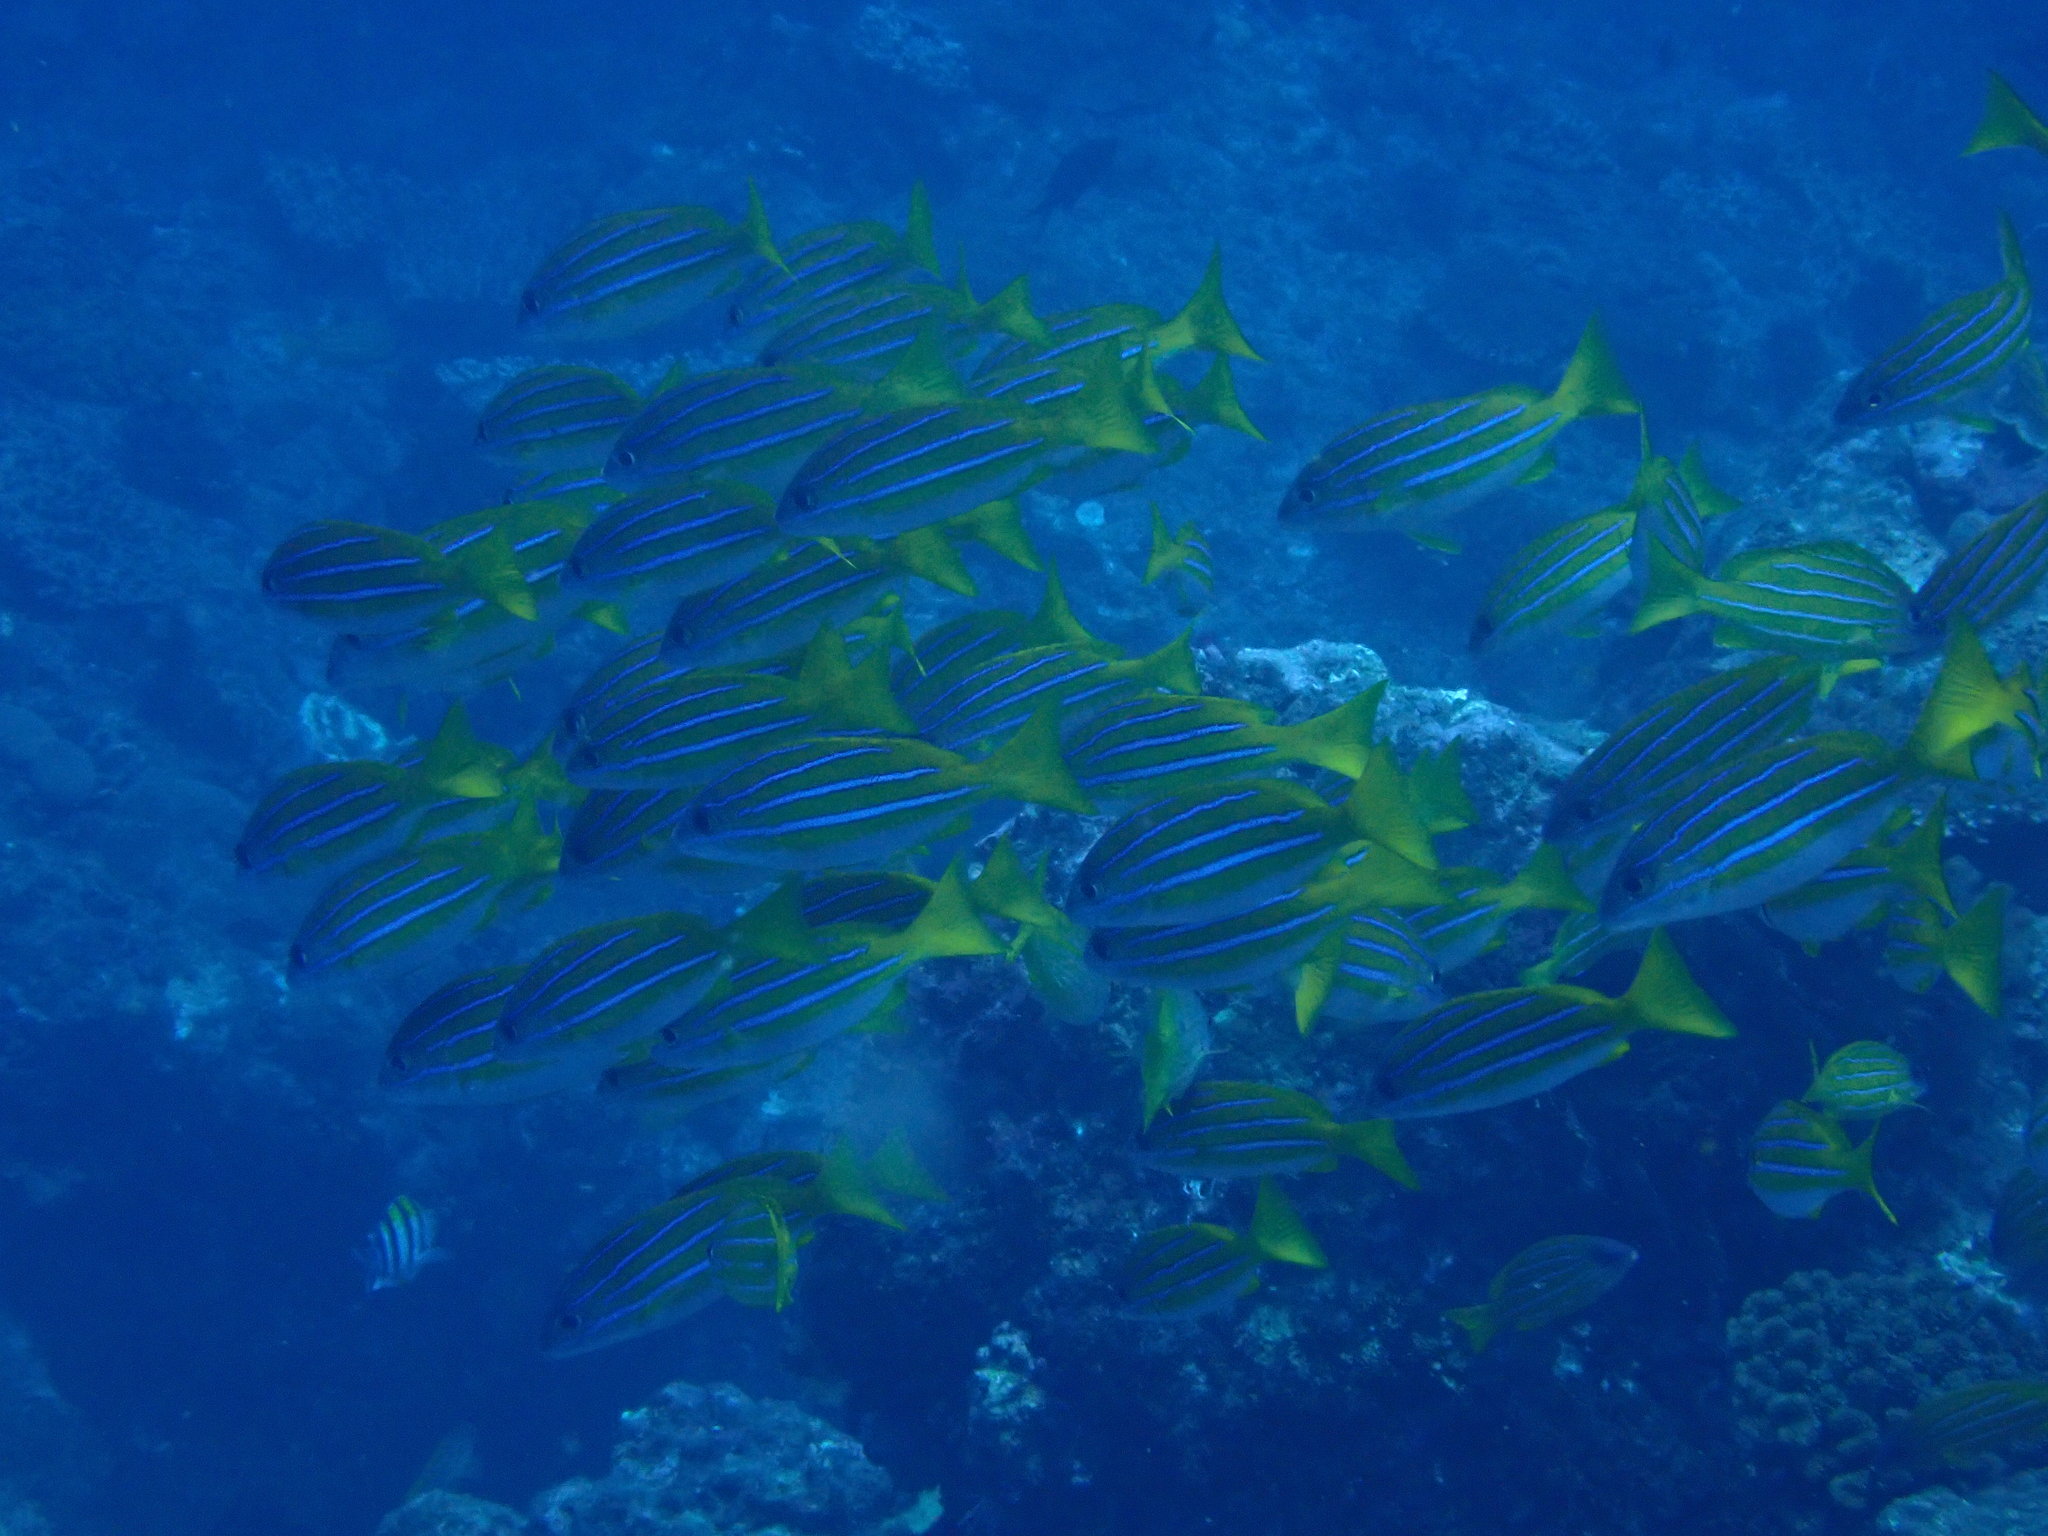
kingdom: Animalia
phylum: Chordata
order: Perciformes
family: Lutjanidae
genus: Lutjanus
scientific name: Lutjanus kasmira
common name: Common bluestripe snapper
